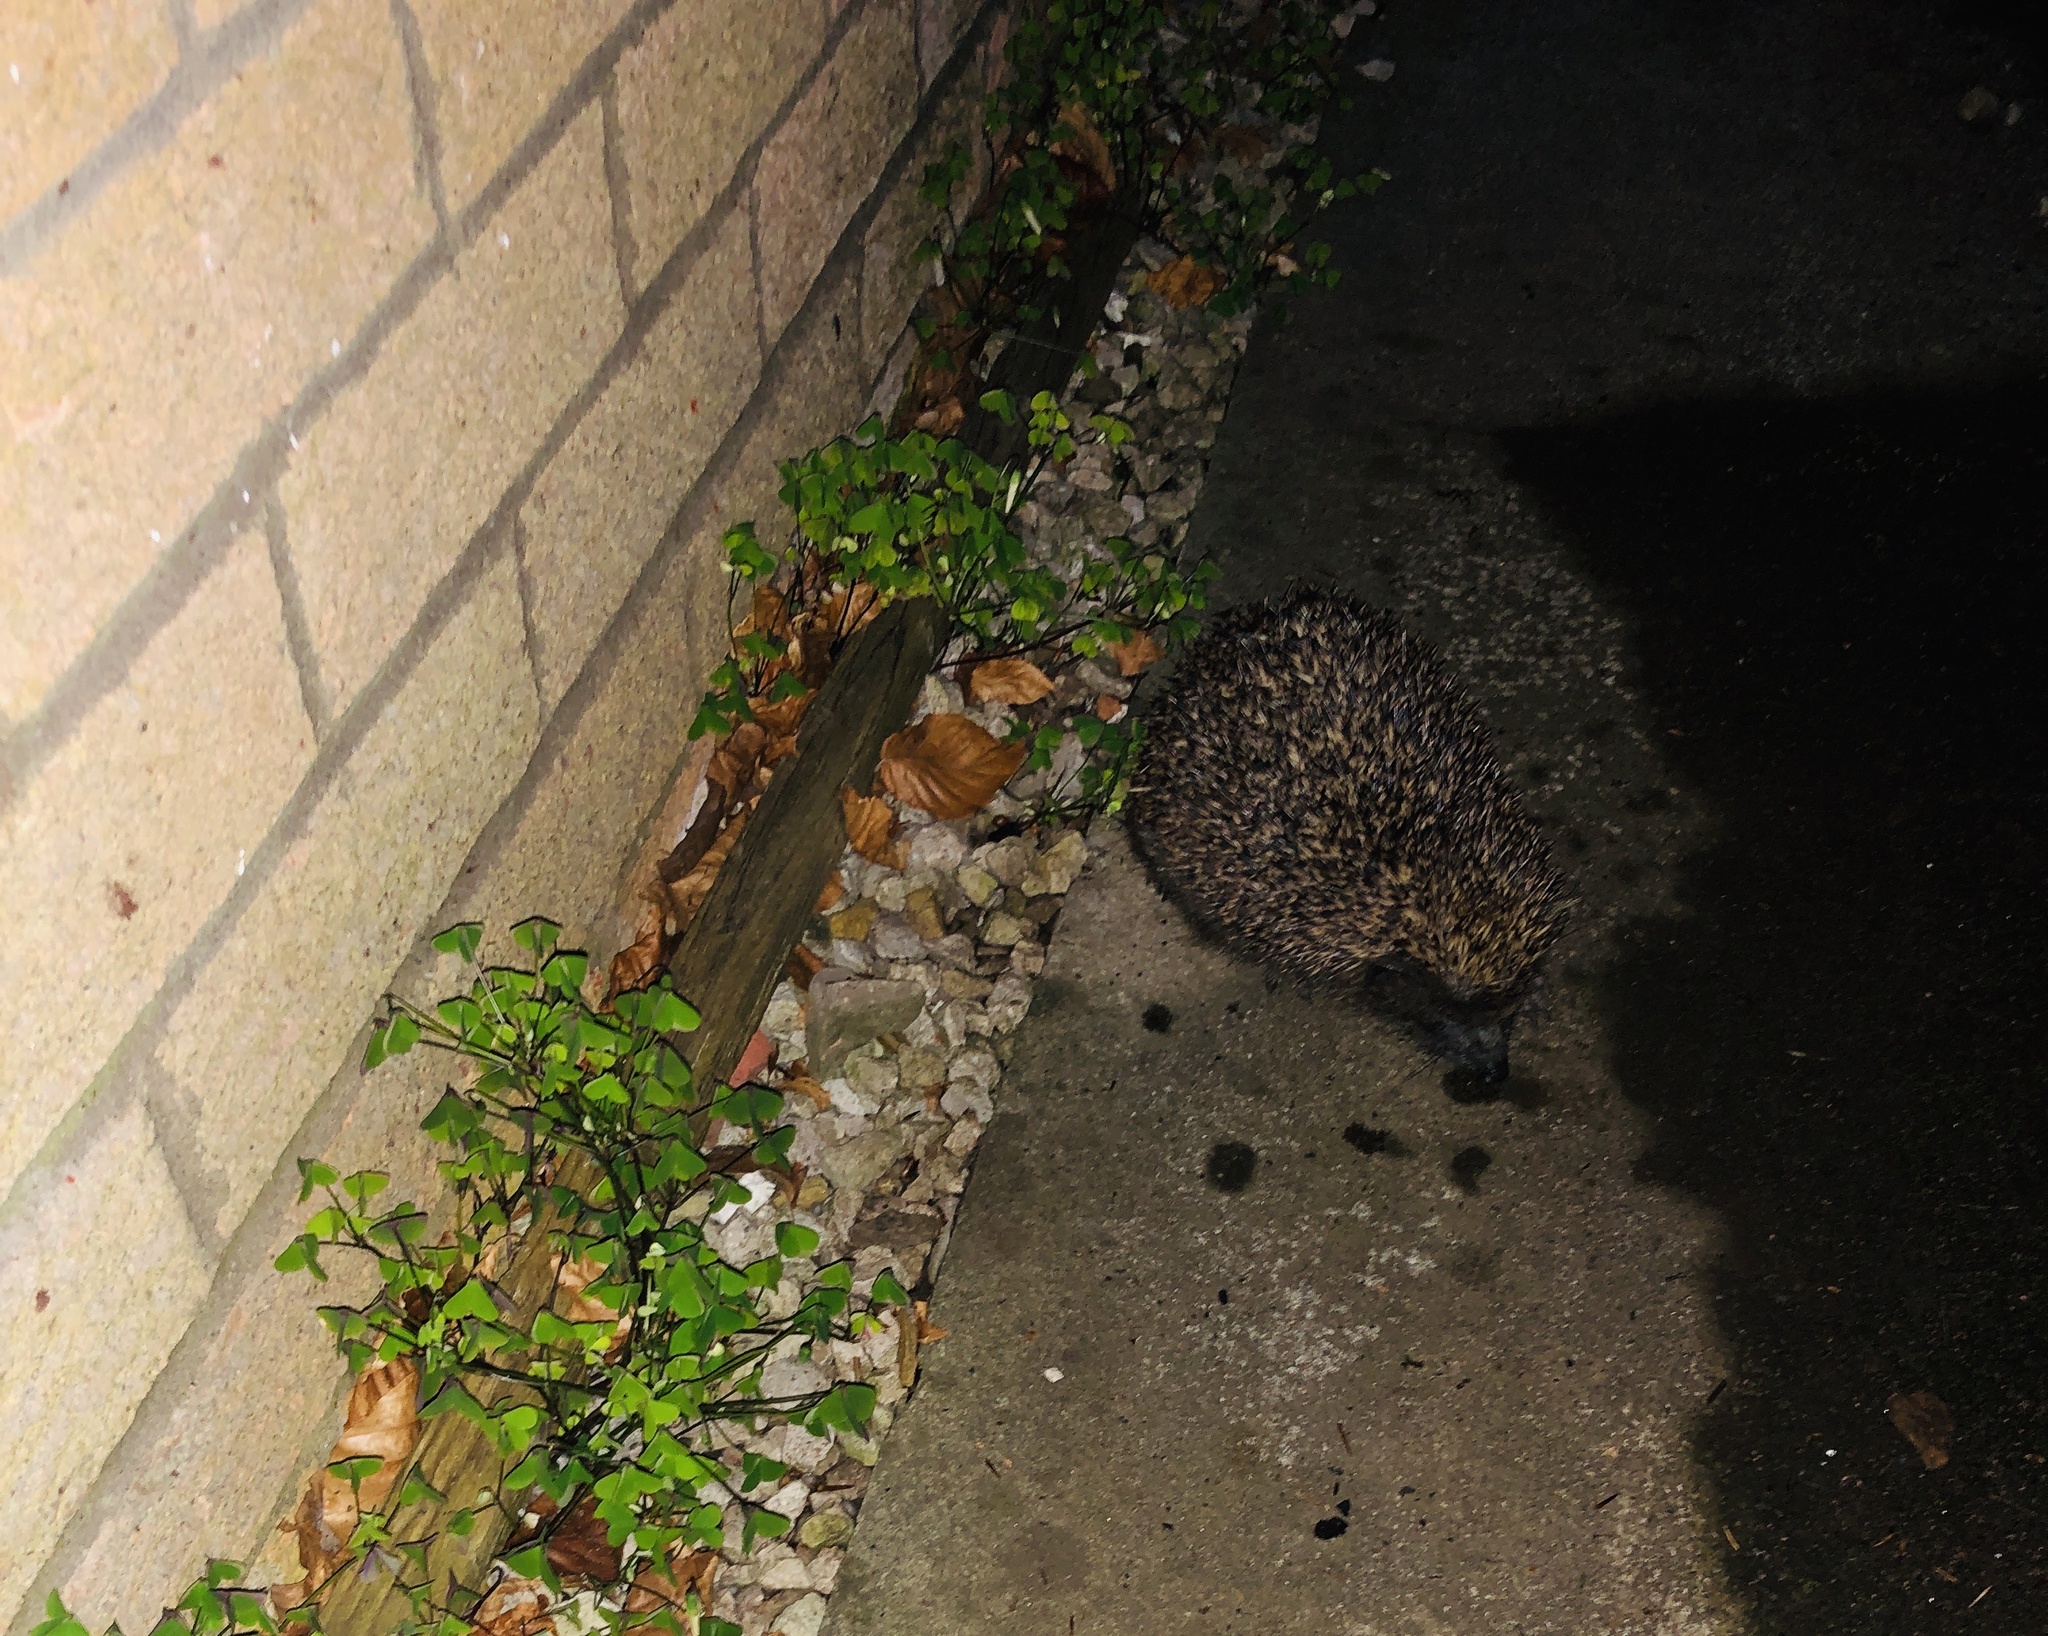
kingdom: Animalia
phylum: Chordata
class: Mammalia
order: Erinaceomorpha
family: Erinaceidae
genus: Erinaceus
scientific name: Erinaceus europaeus
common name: West european hedgehog
